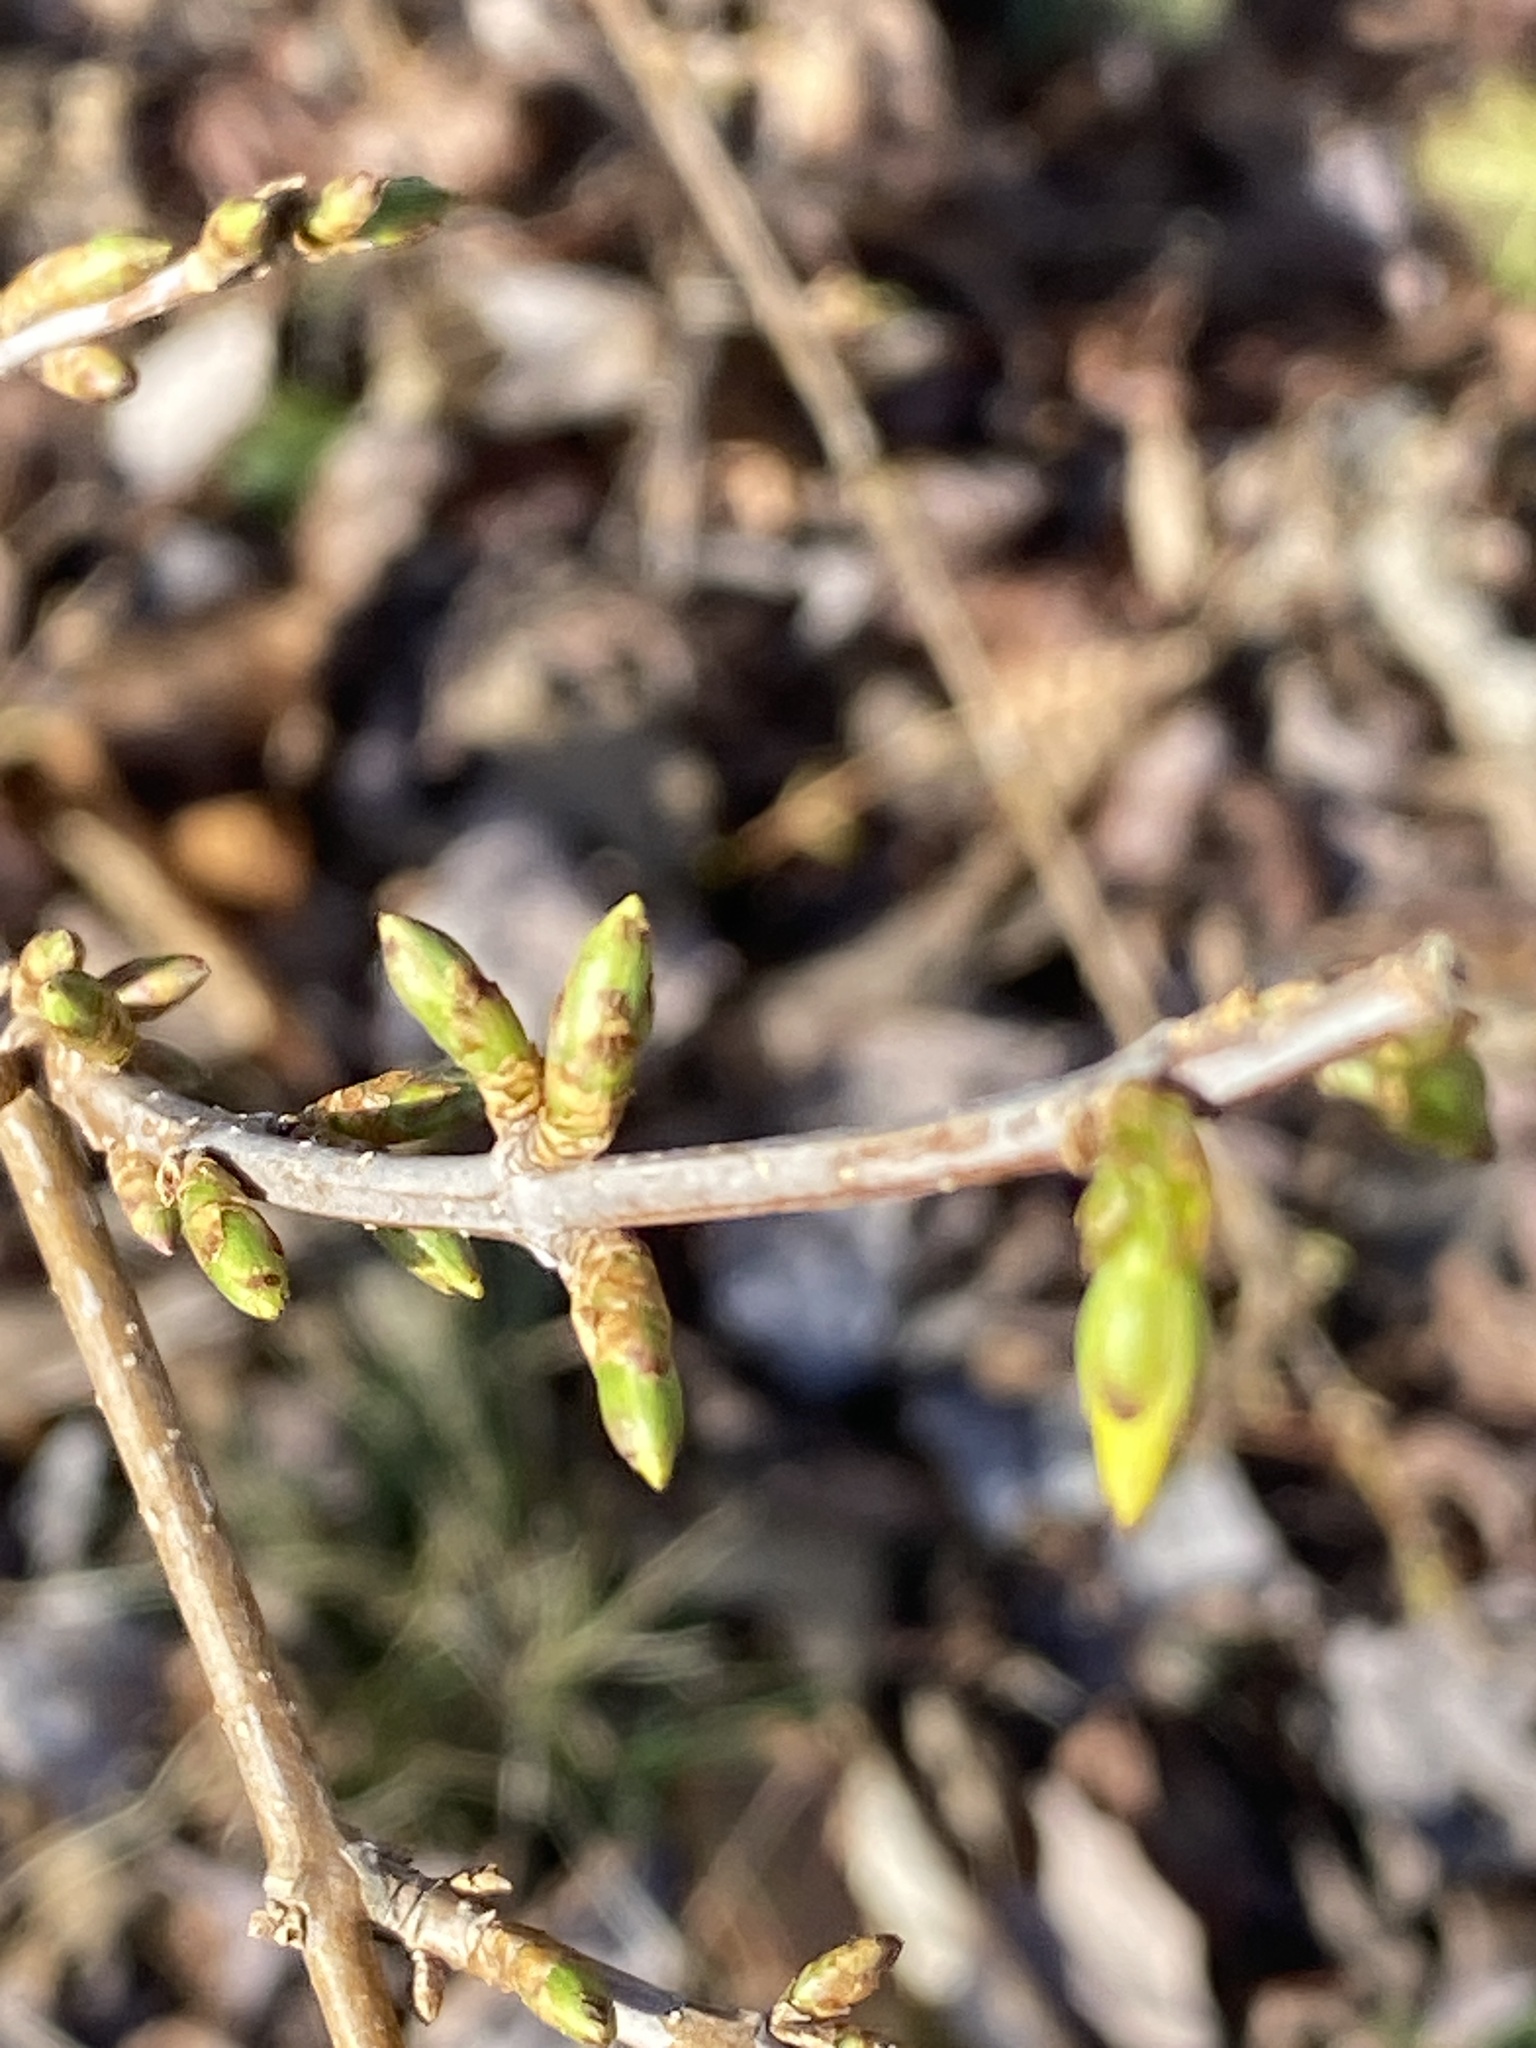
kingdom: Plantae
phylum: Tracheophyta
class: Magnoliopsida
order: Lamiales
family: Oleaceae
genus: Forsythia
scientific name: Forsythia
